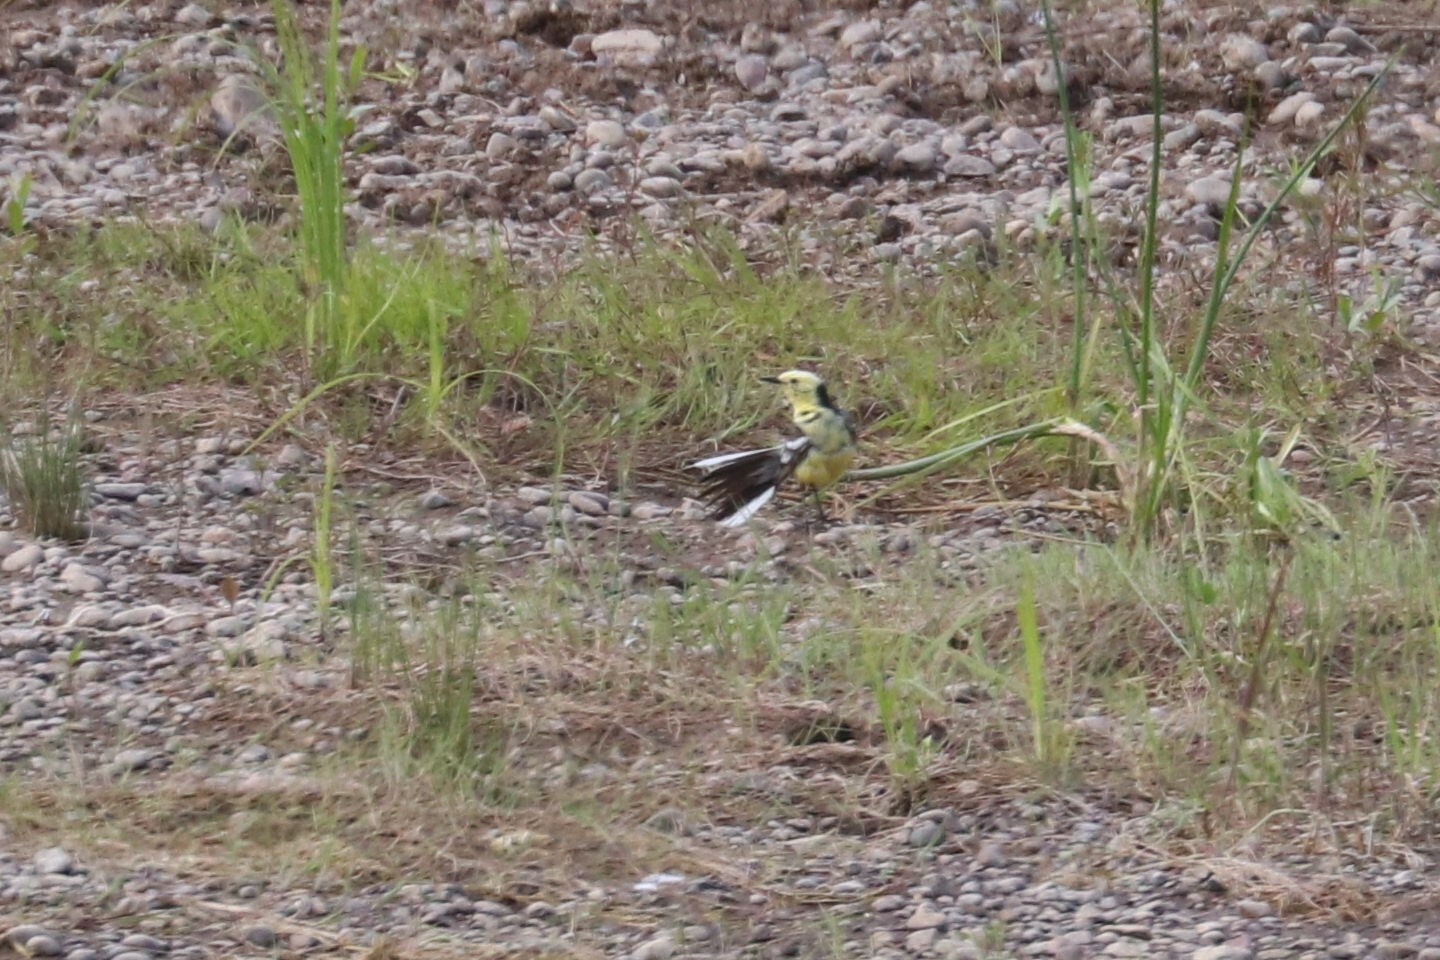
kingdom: Animalia
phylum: Chordata
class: Aves
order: Passeriformes
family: Motacillidae
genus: Motacilla
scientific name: Motacilla citreola
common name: Citrine wagtail
